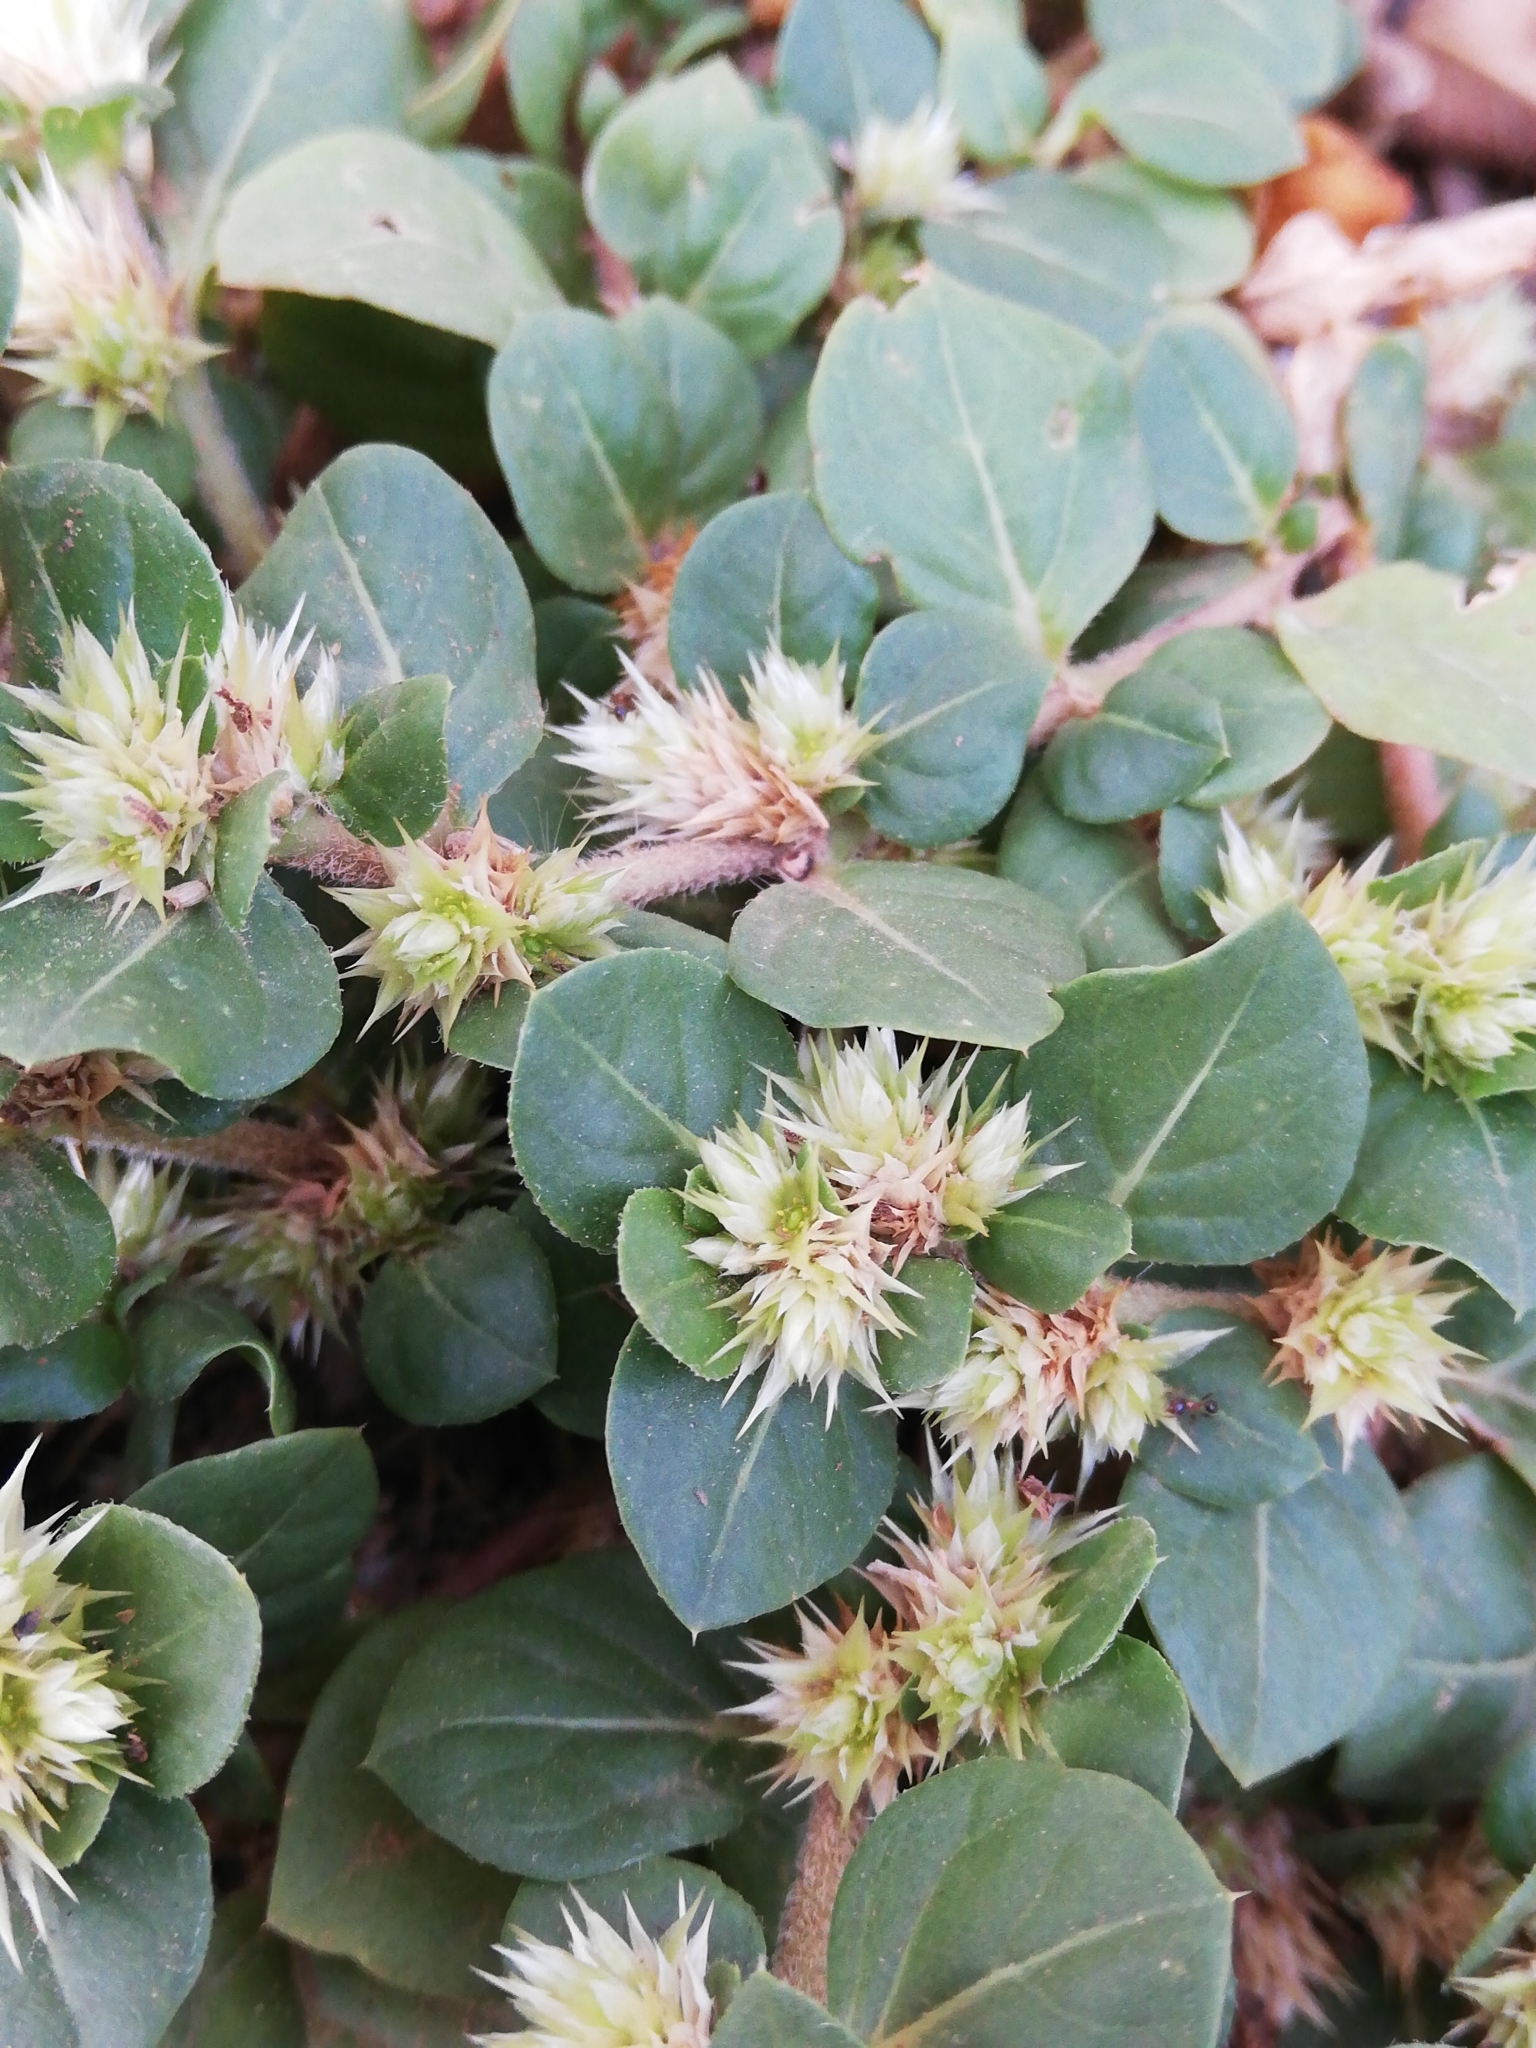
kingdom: Plantae
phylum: Tracheophyta
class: Magnoliopsida
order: Caryophyllales
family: Amaranthaceae
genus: Alternanthera
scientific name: Alternanthera pungens
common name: Khakiweed
